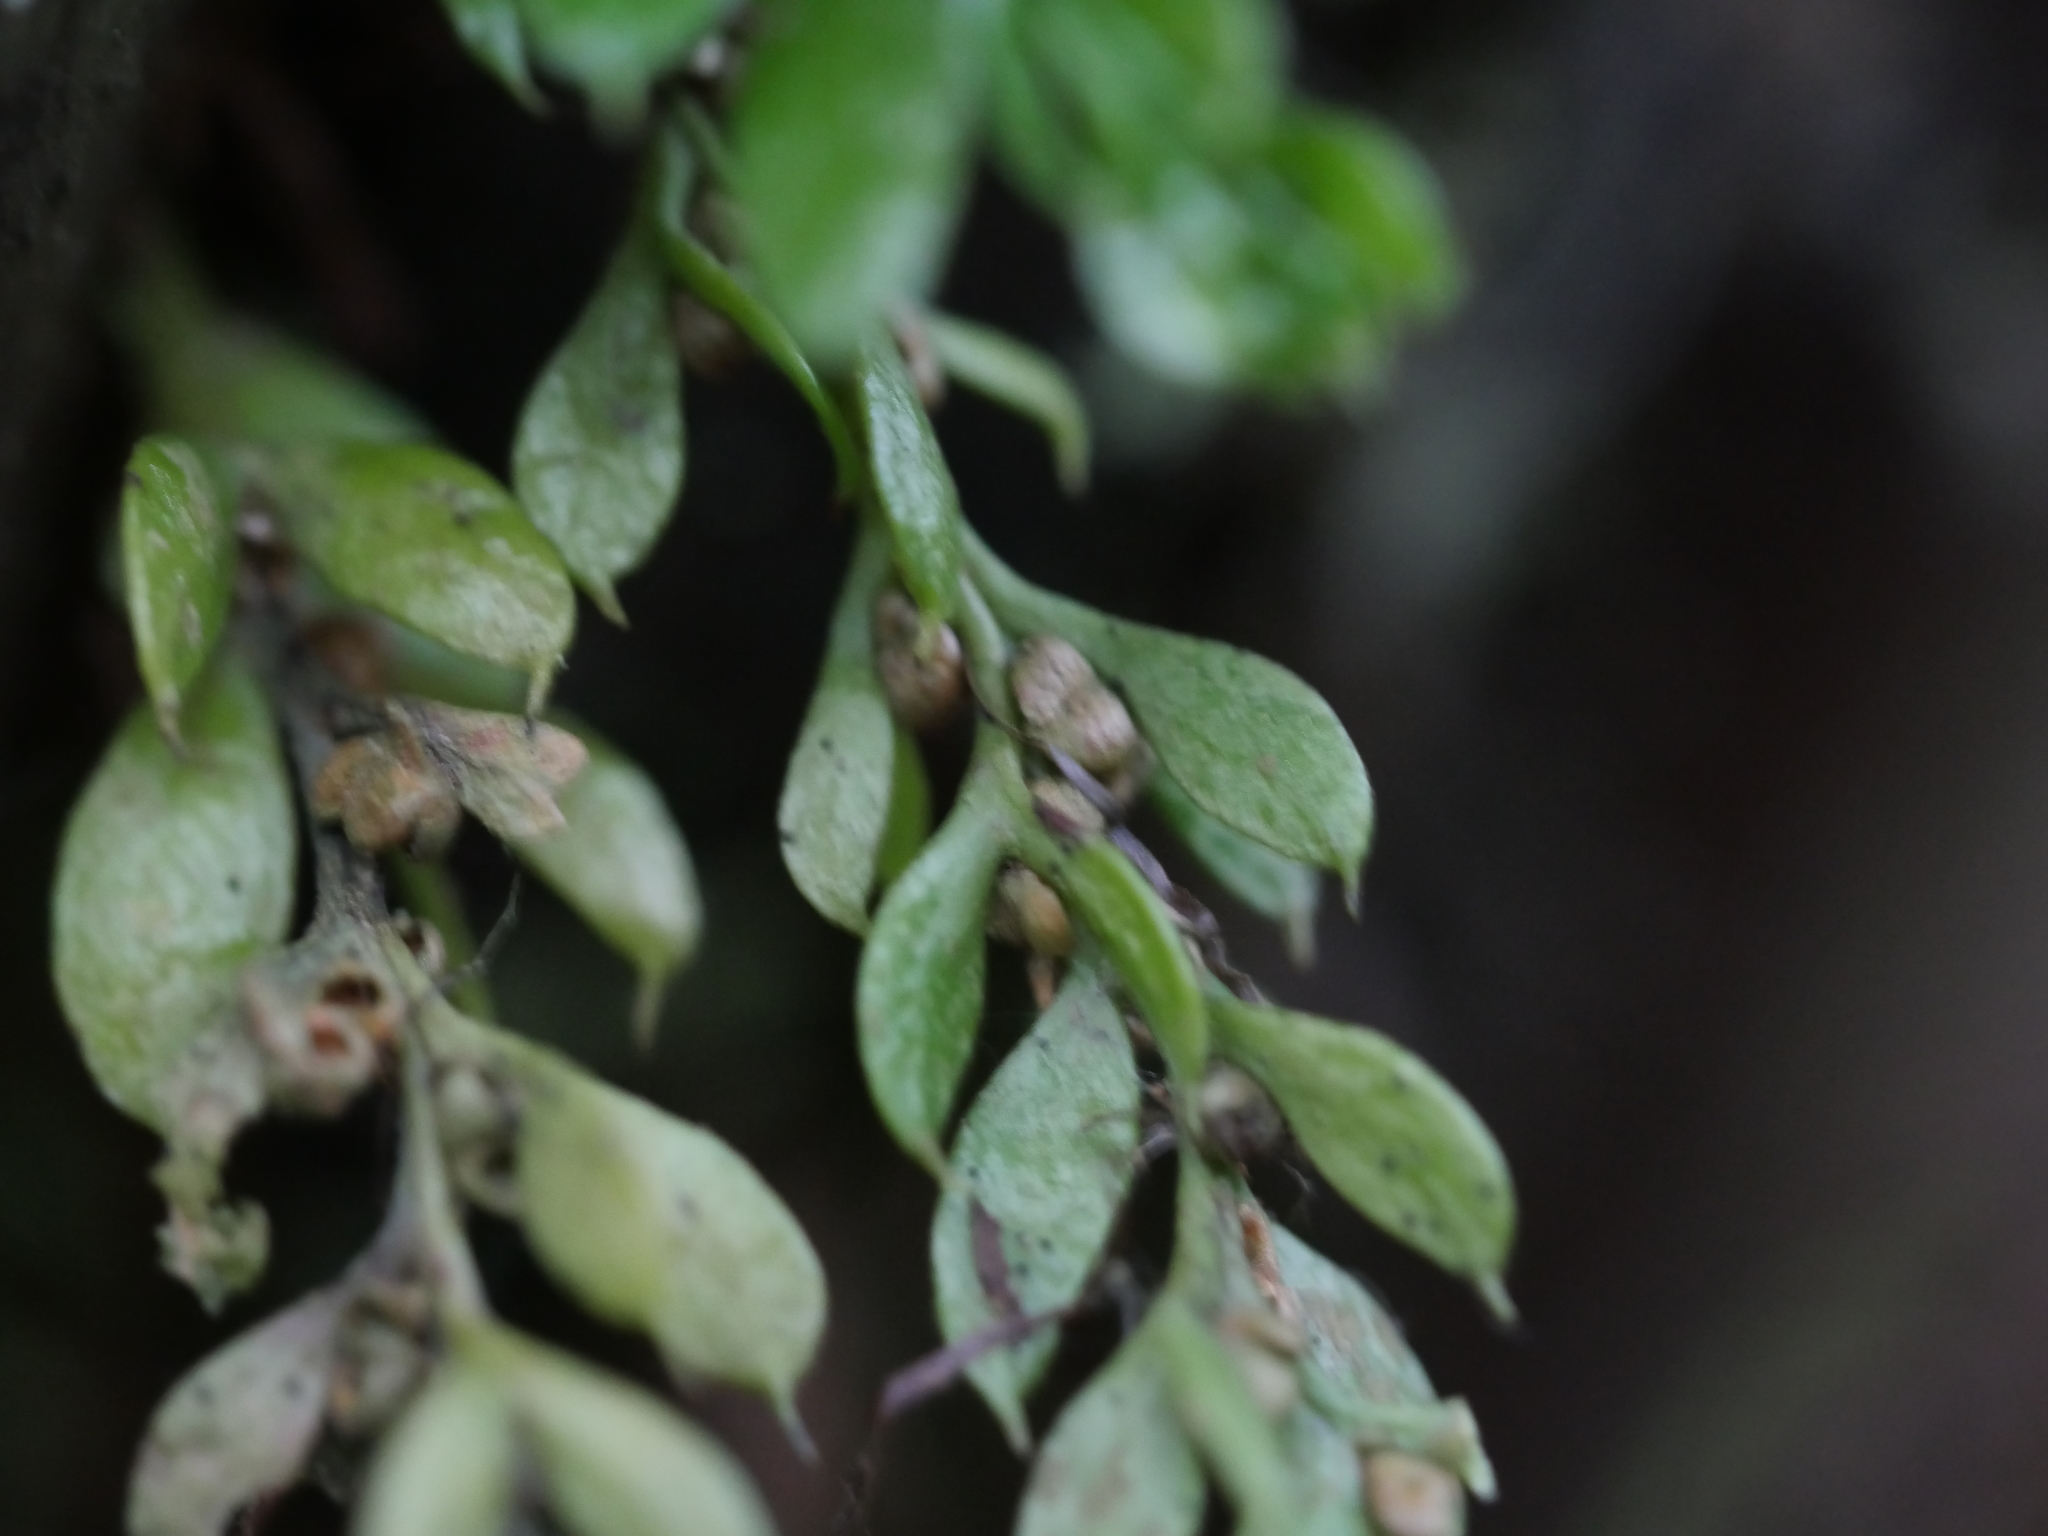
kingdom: Plantae
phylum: Tracheophyta
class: Polypodiopsida
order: Psilotales
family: Psilotaceae
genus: Tmesipteris
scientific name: Tmesipteris lanceolata
